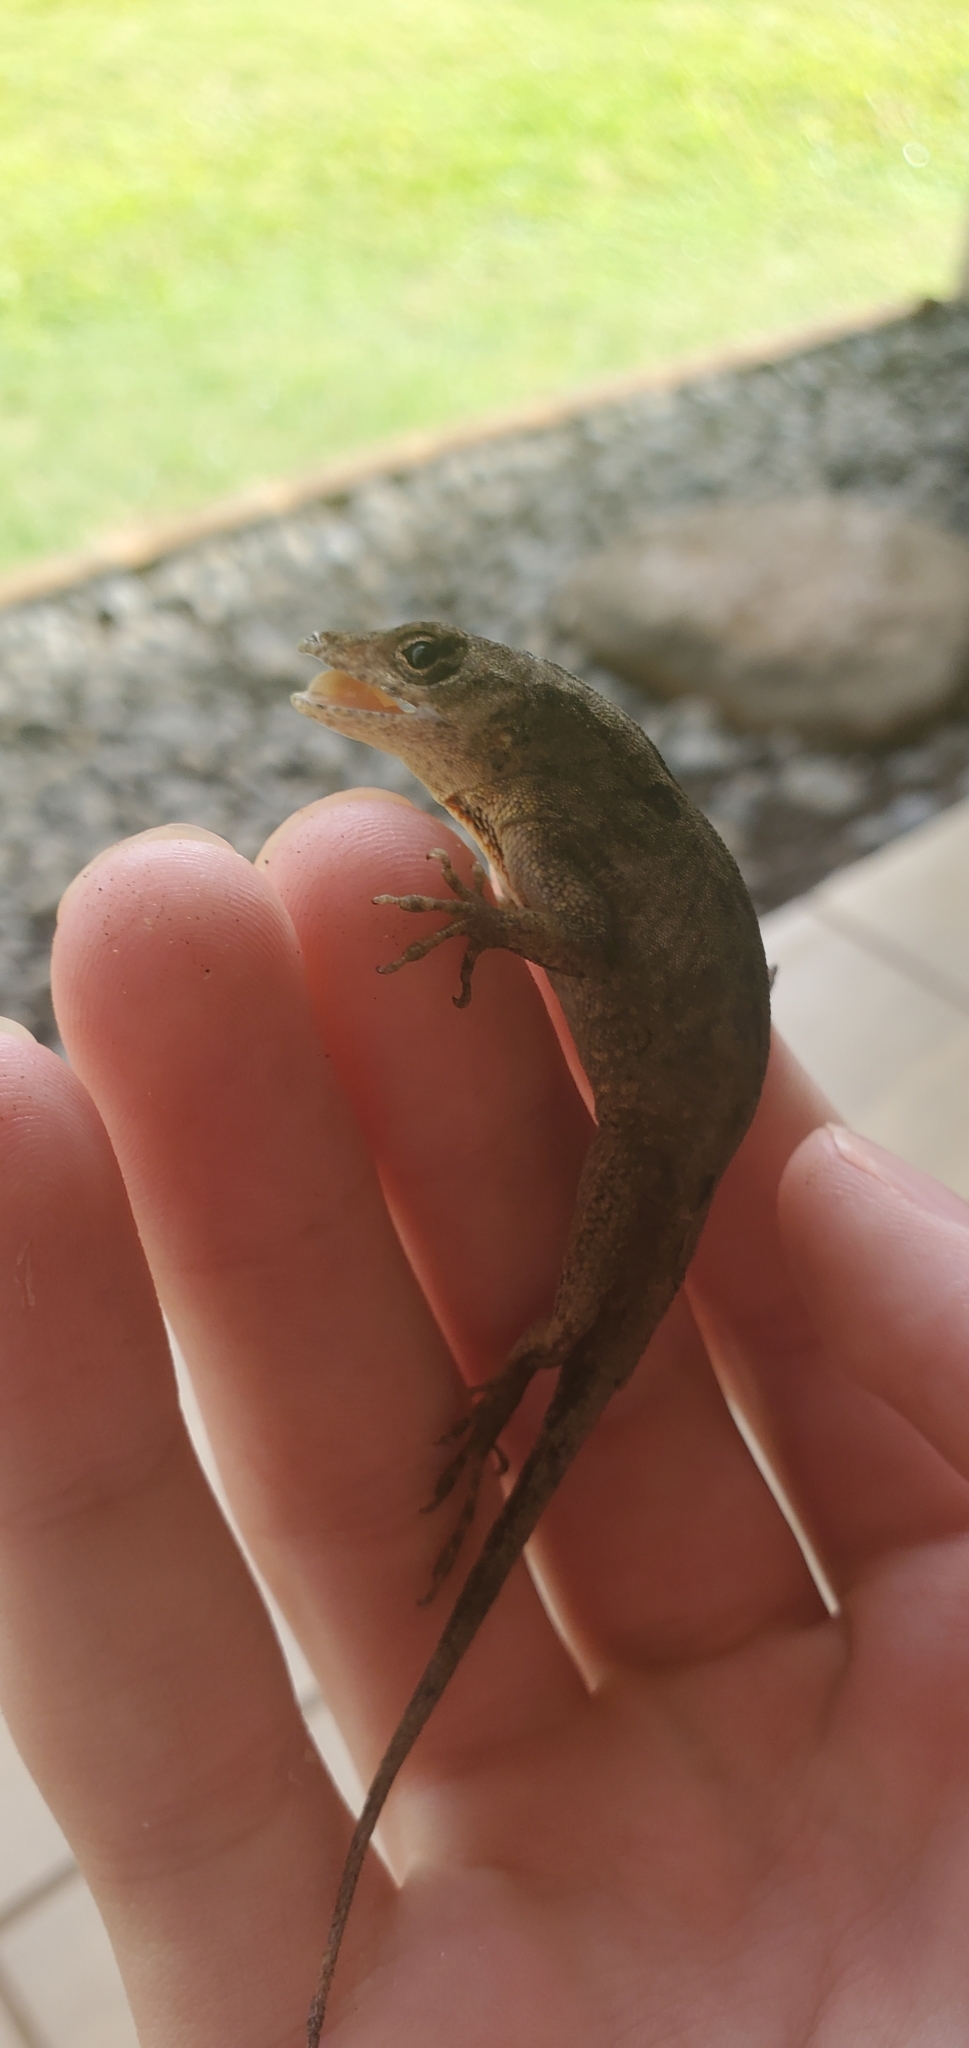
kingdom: Animalia
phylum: Chordata
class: Squamata
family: Dactyloidae
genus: Anolis
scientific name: Anolis sagrei
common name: Brown anole
